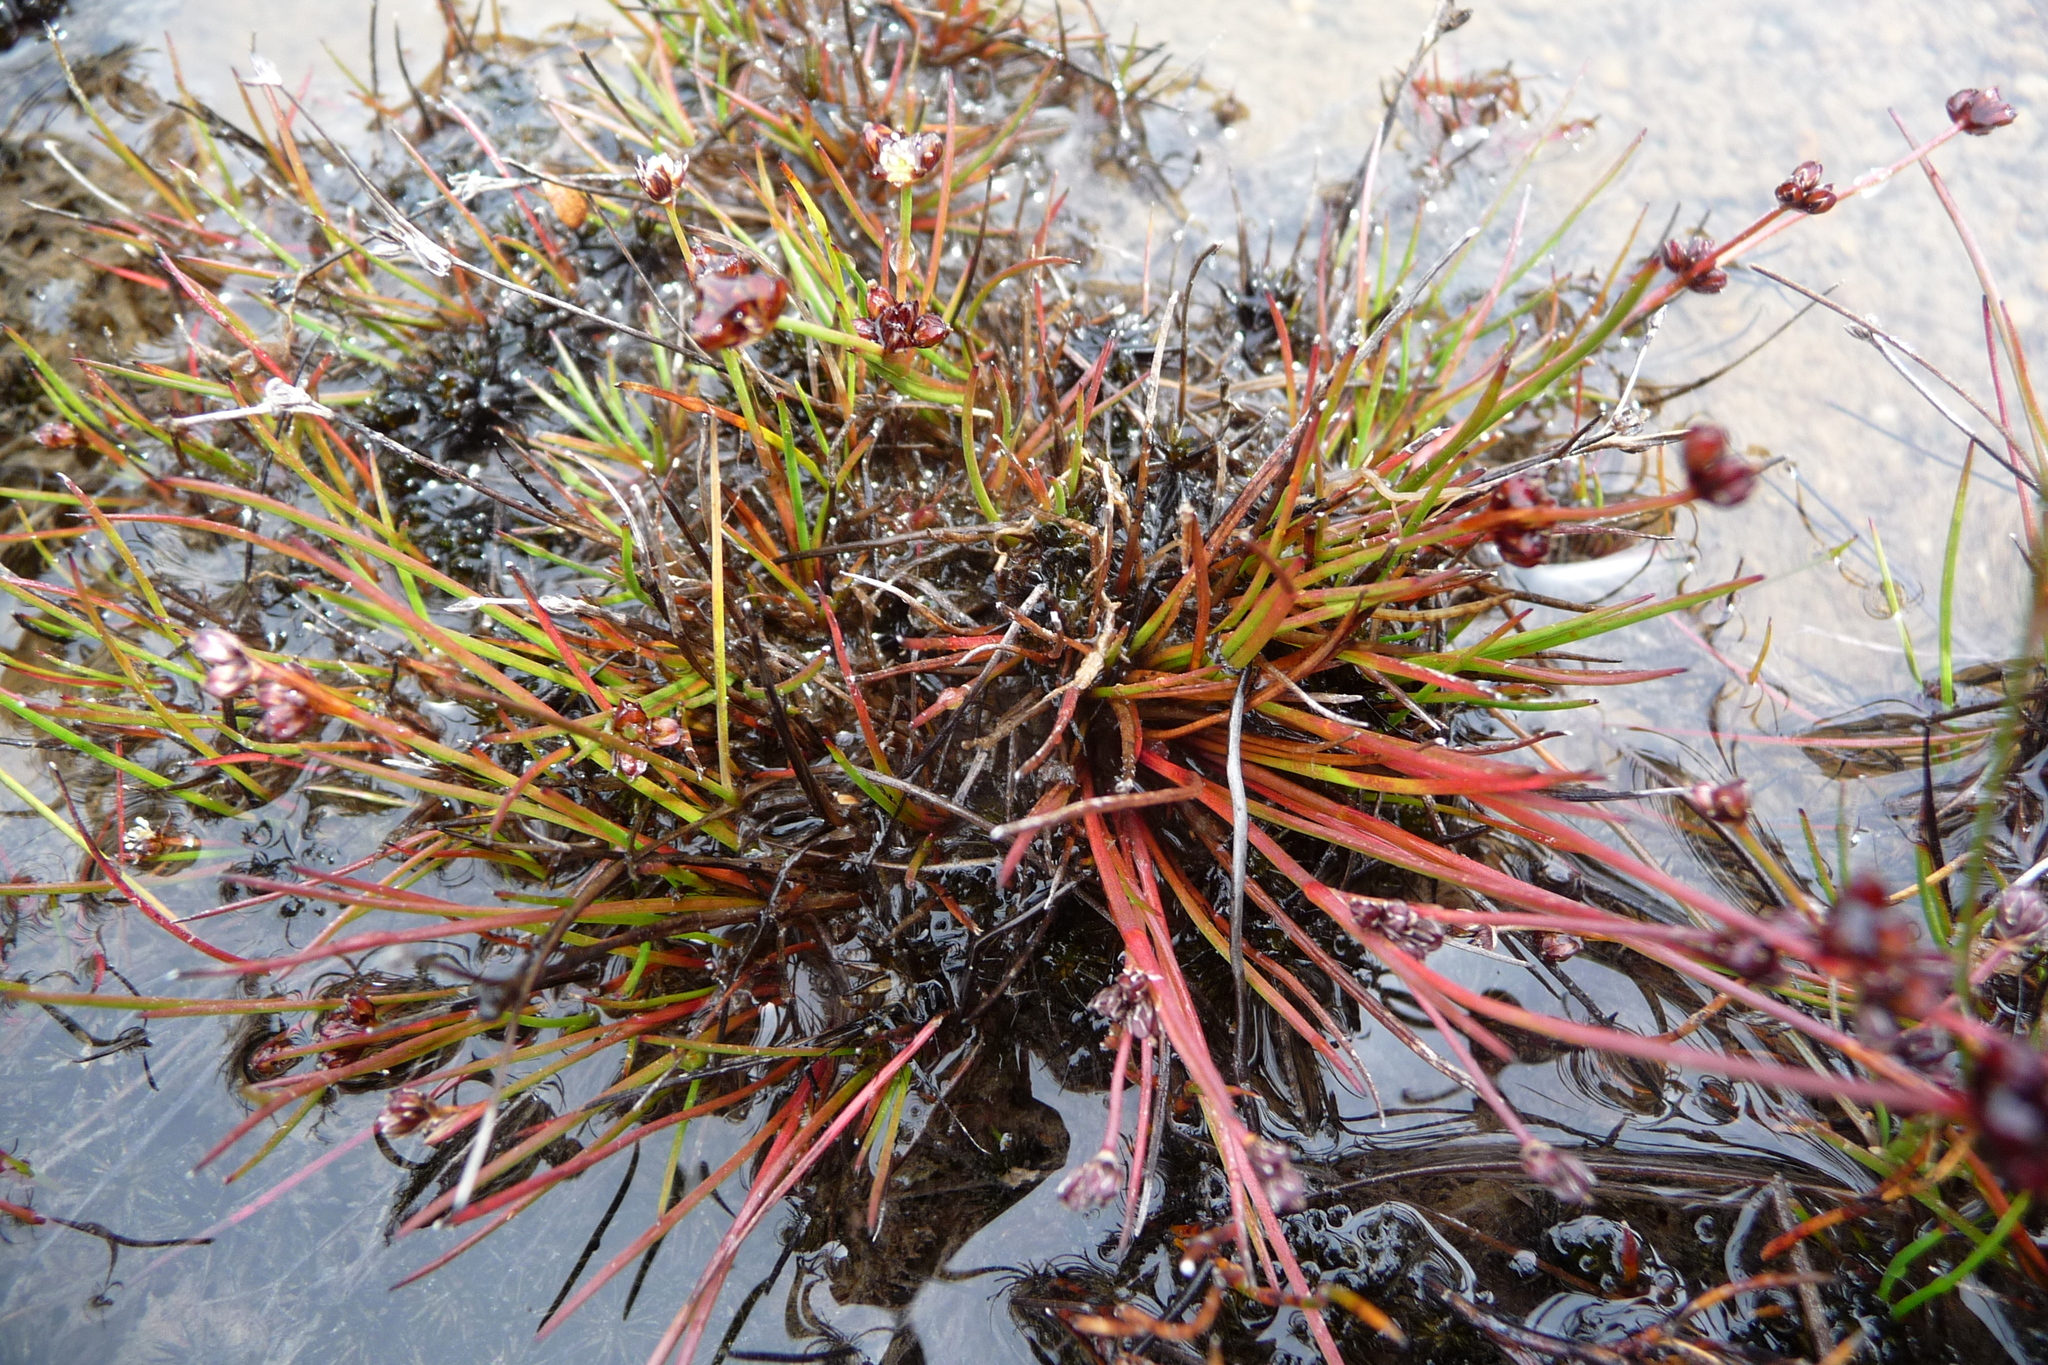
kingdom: Plantae
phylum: Tracheophyta
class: Liliopsida
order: Poales
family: Juncaceae
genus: Juncus
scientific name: Juncus articulatus
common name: Jointed rush
